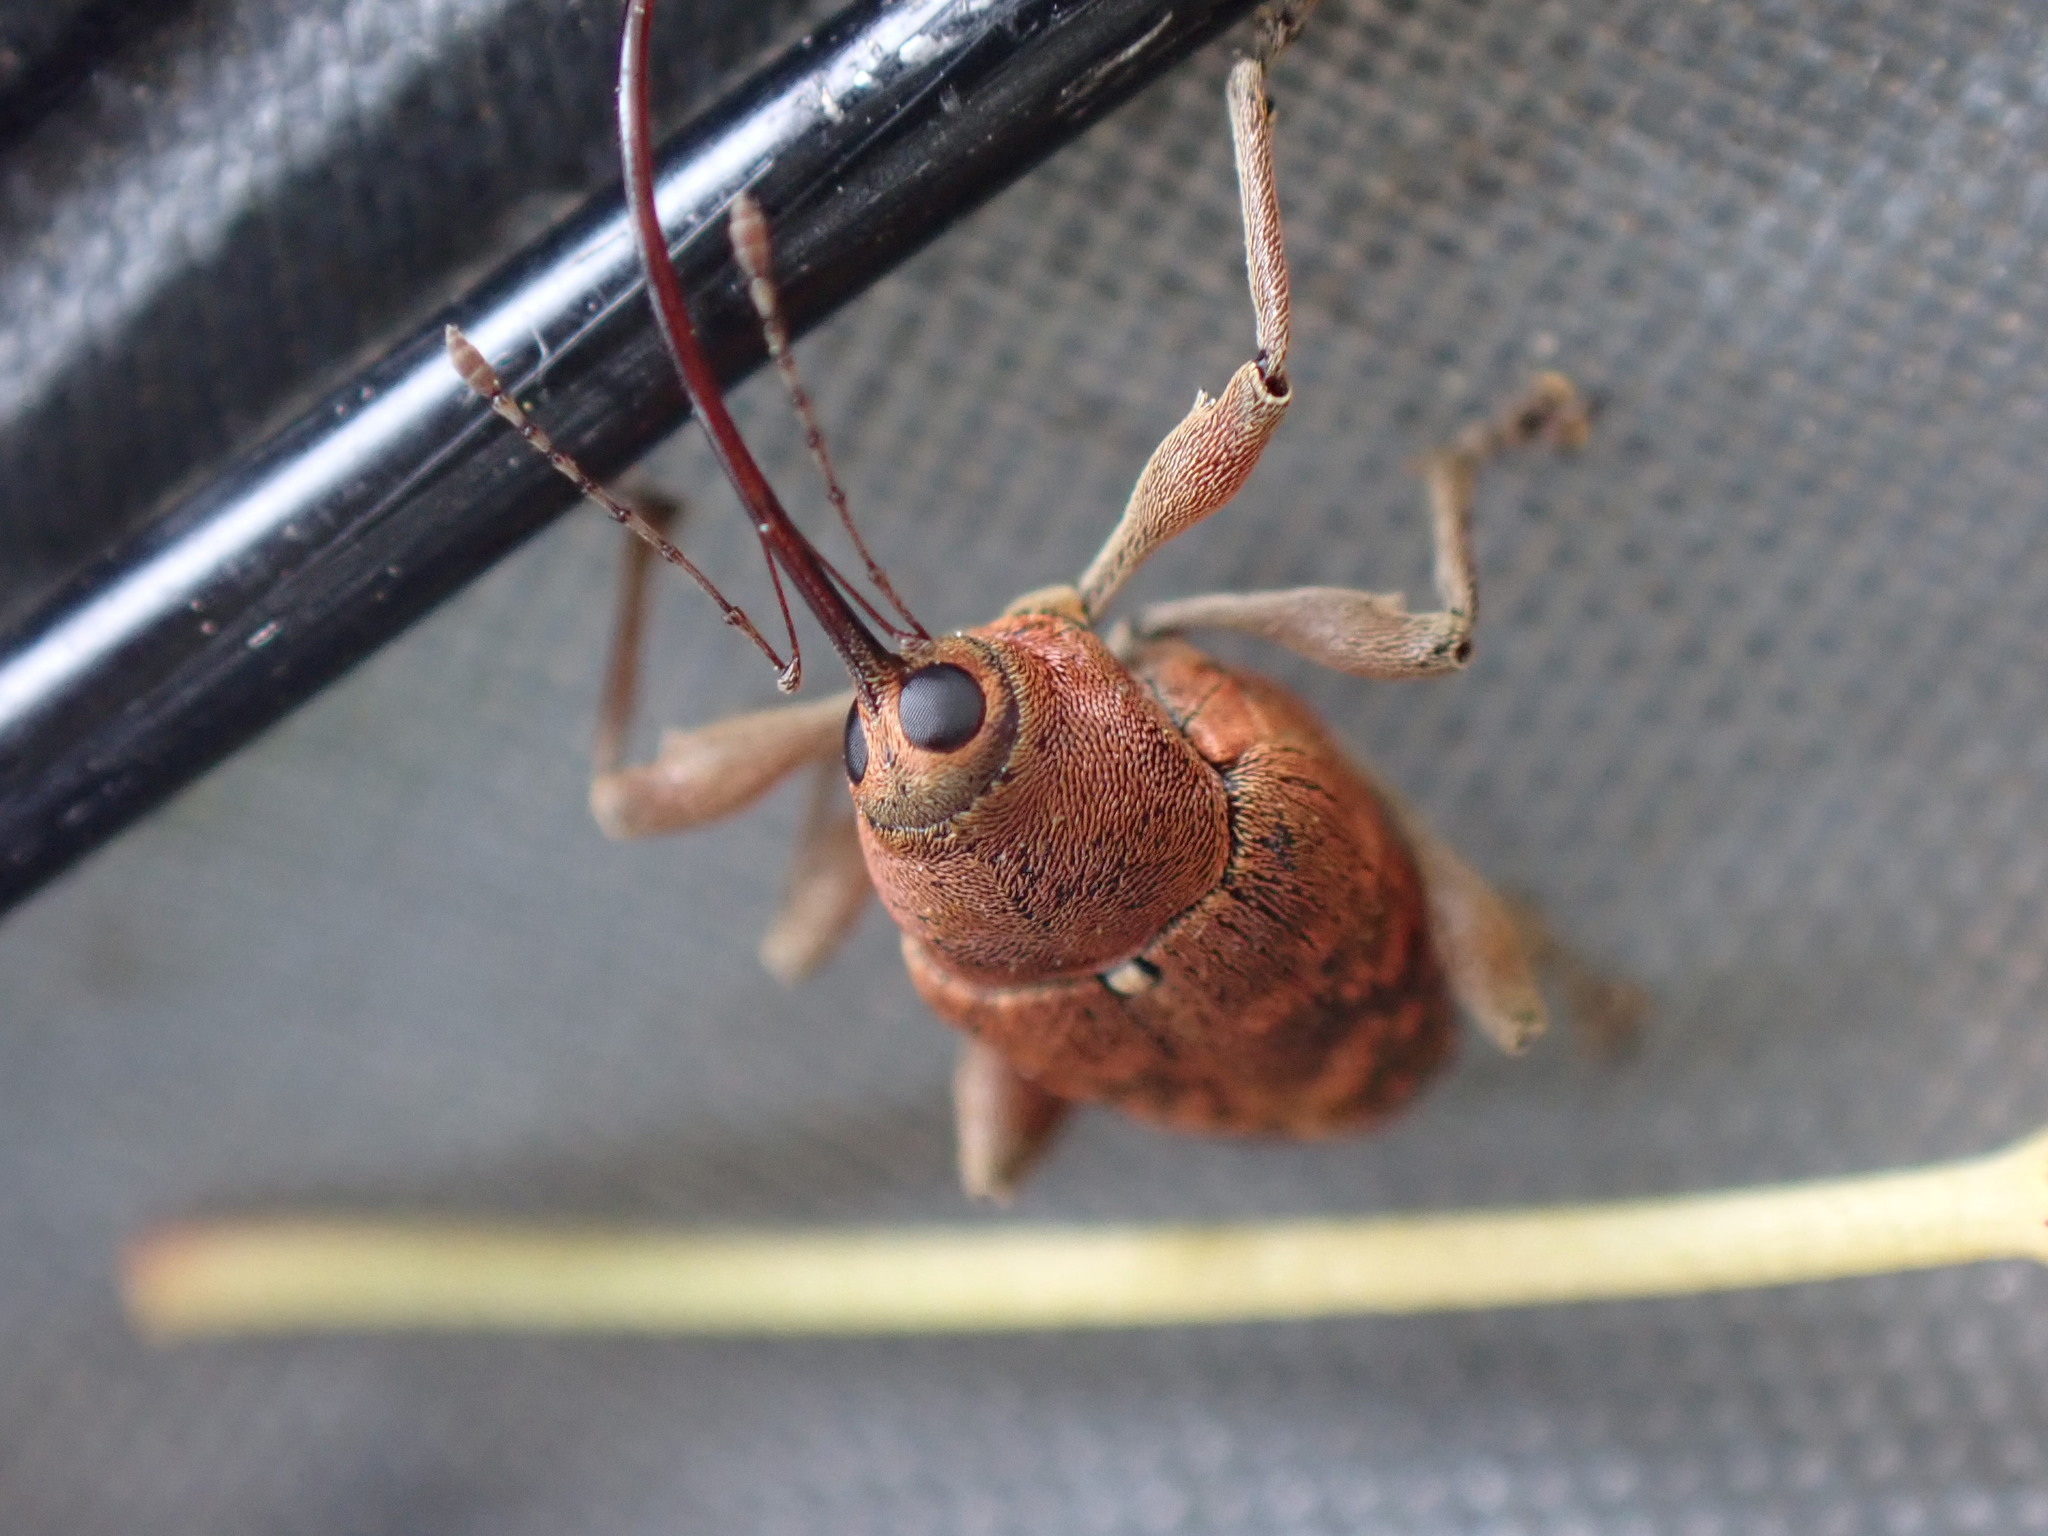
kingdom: Animalia
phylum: Arthropoda
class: Insecta
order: Coleoptera
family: Curculionidae
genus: Curculio
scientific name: Curculio glandium
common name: Acorn weevil
